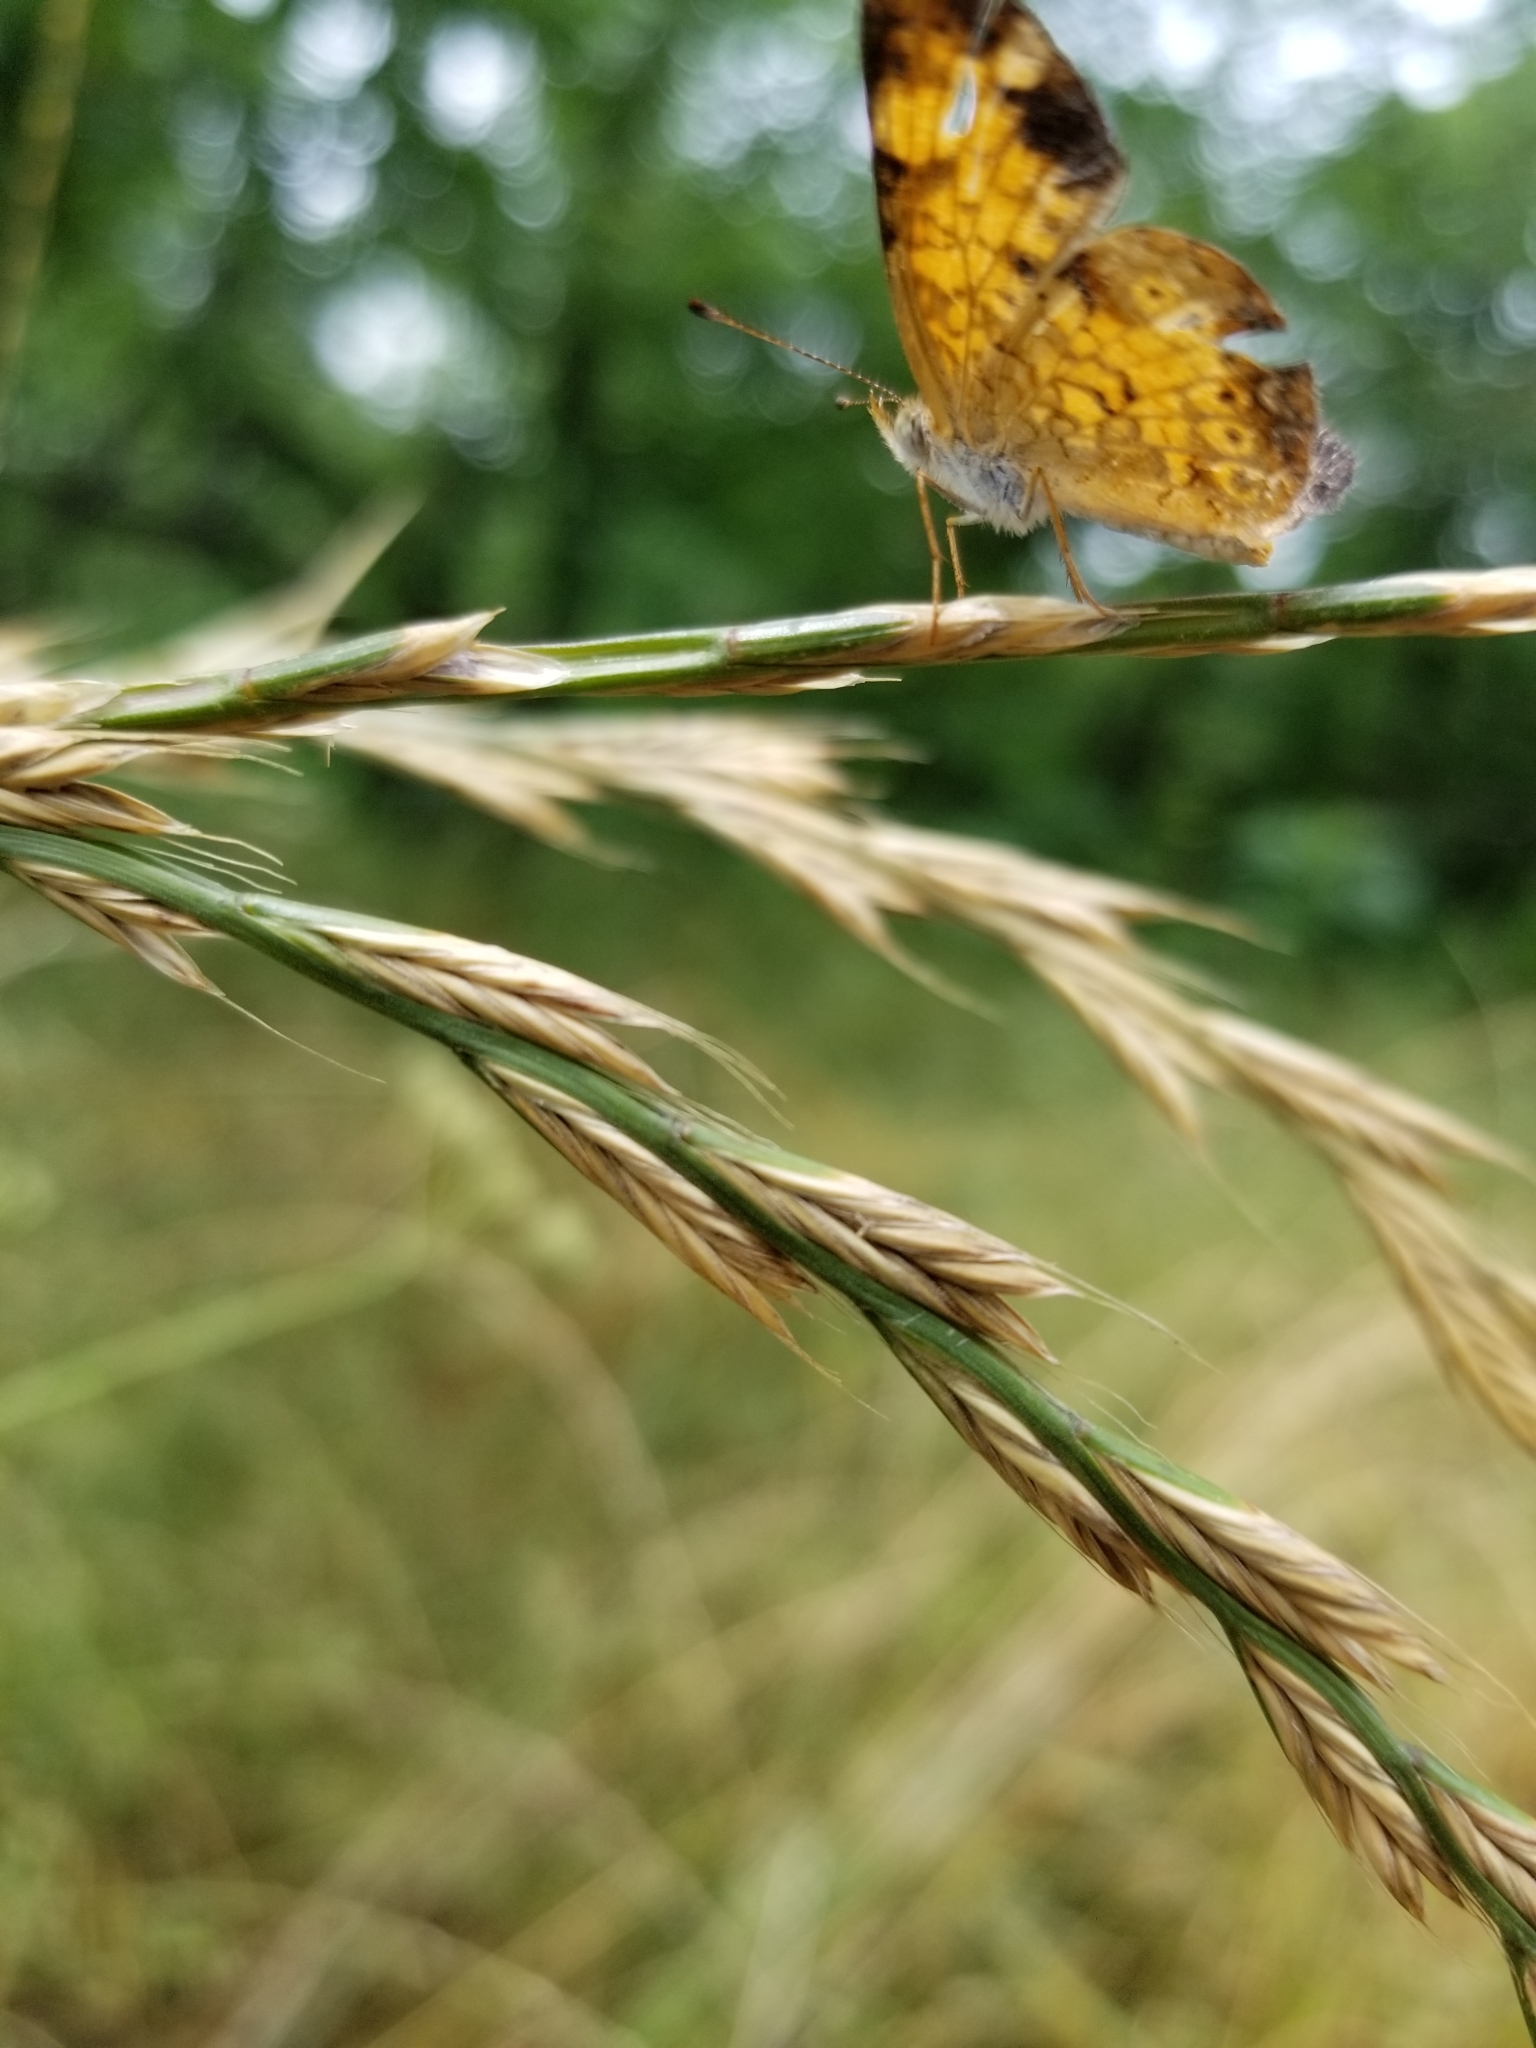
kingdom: Animalia
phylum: Arthropoda
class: Insecta
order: Lepidoptera
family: Nymphalidae
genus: Phyciodes
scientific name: Phyciodes tharos
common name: Pearl crescent
